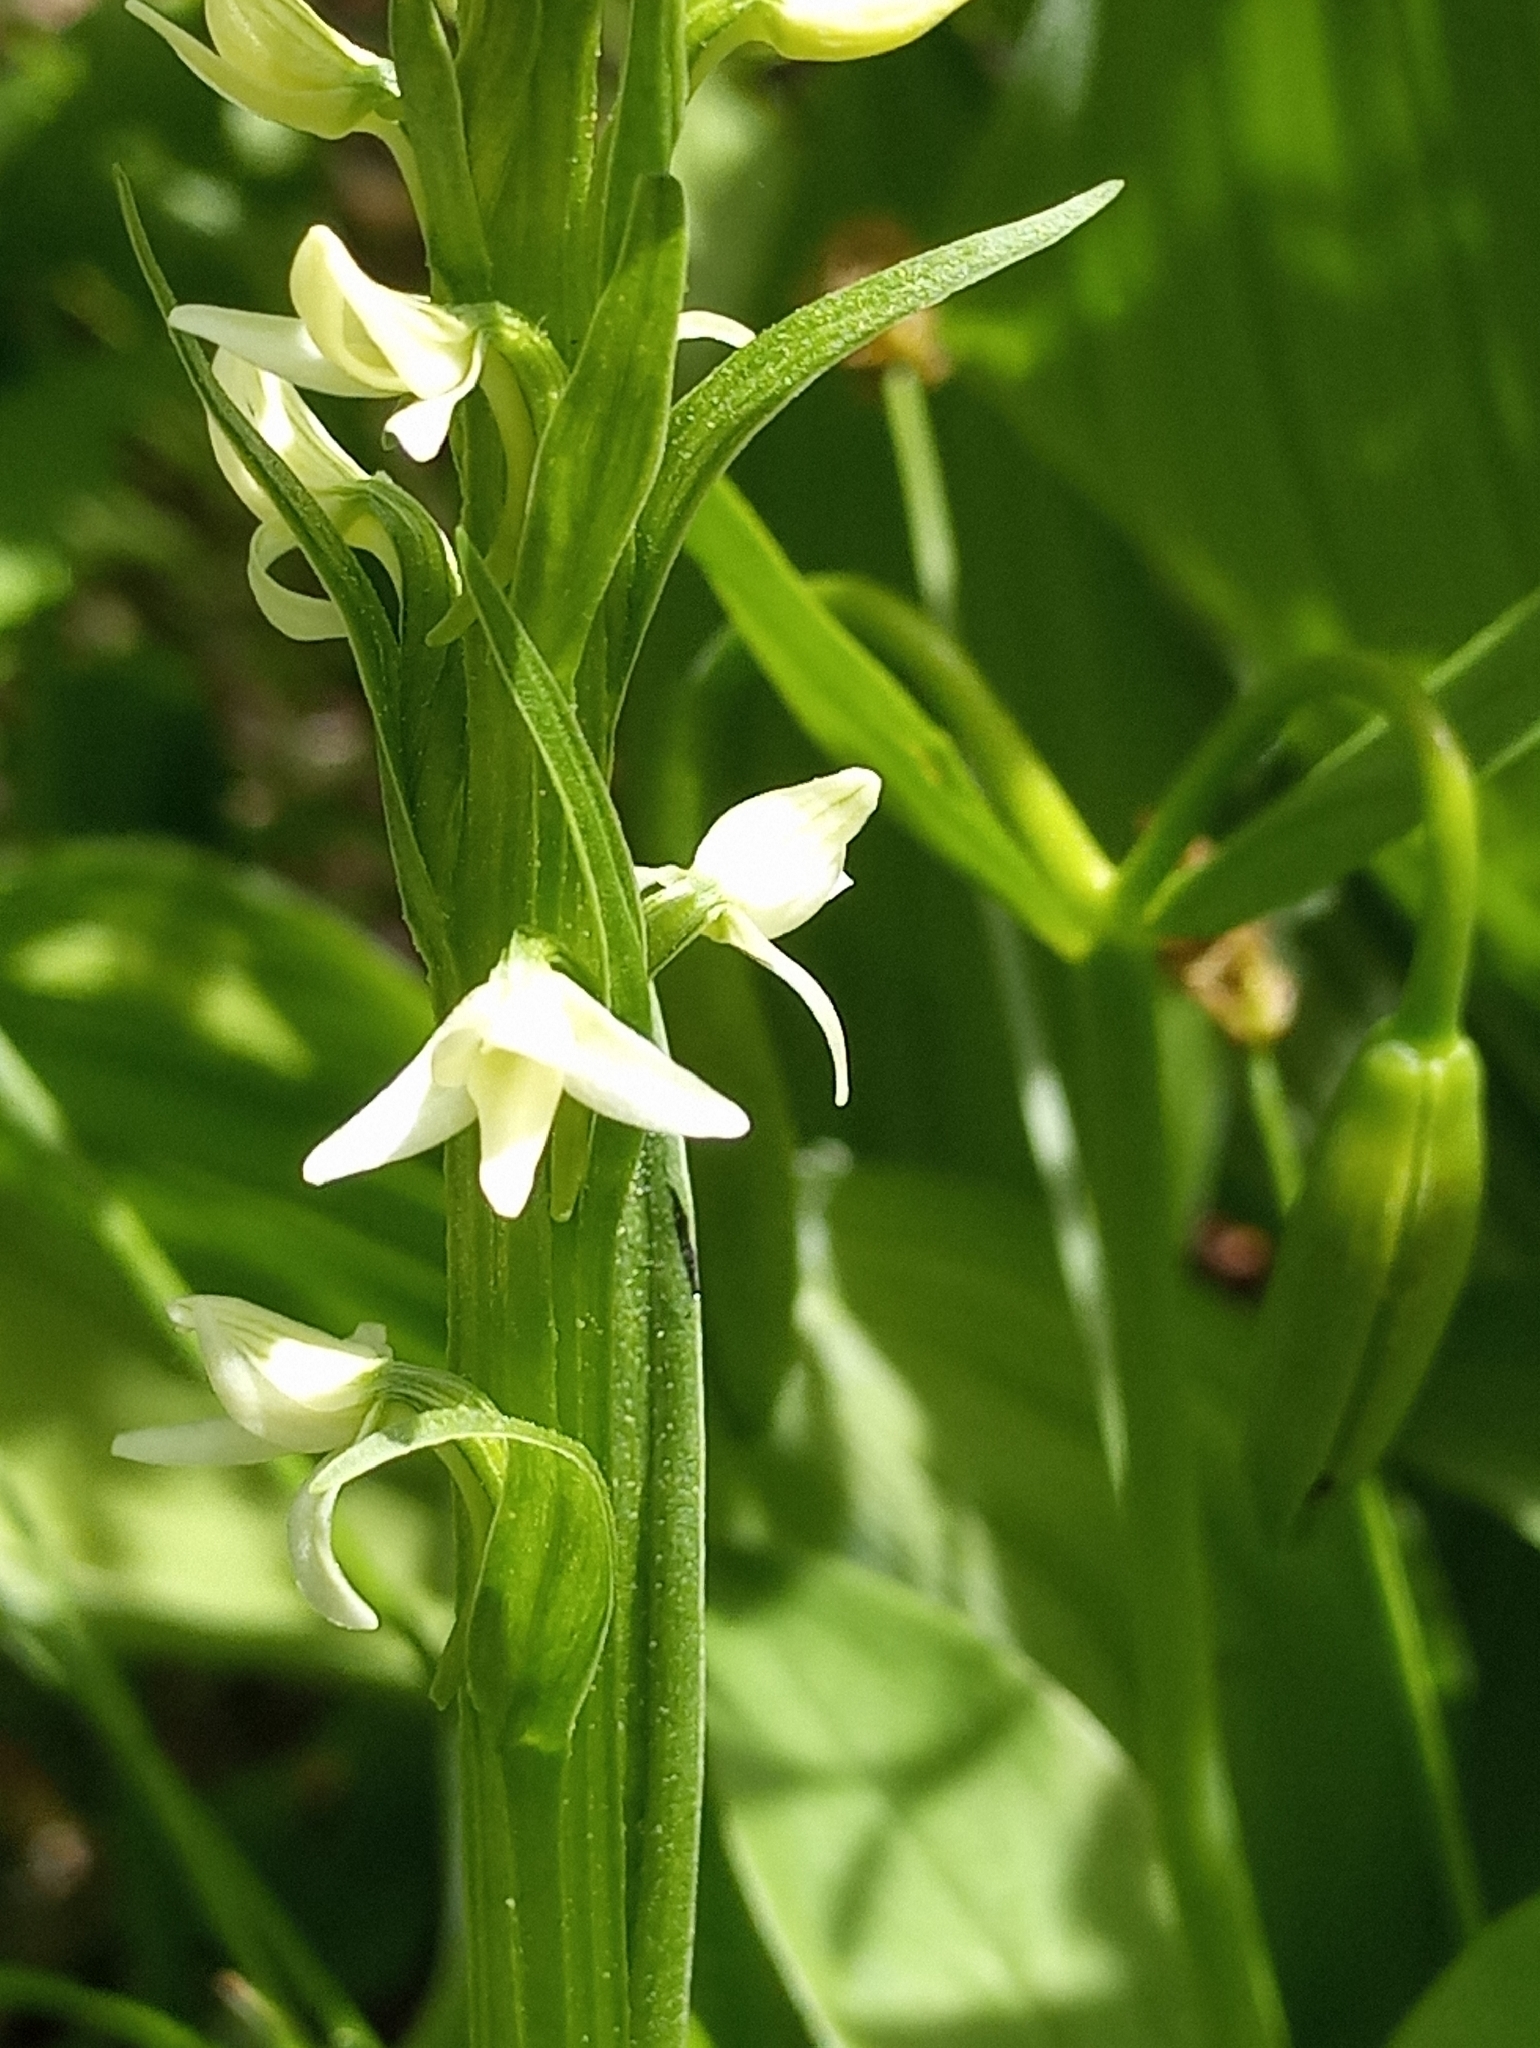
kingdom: Plantae
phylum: Tracheophyta
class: Liliopsida
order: Asparagales
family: Orchidaceae
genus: Platanthera
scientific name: Platanthera dilatata
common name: Bog candles
